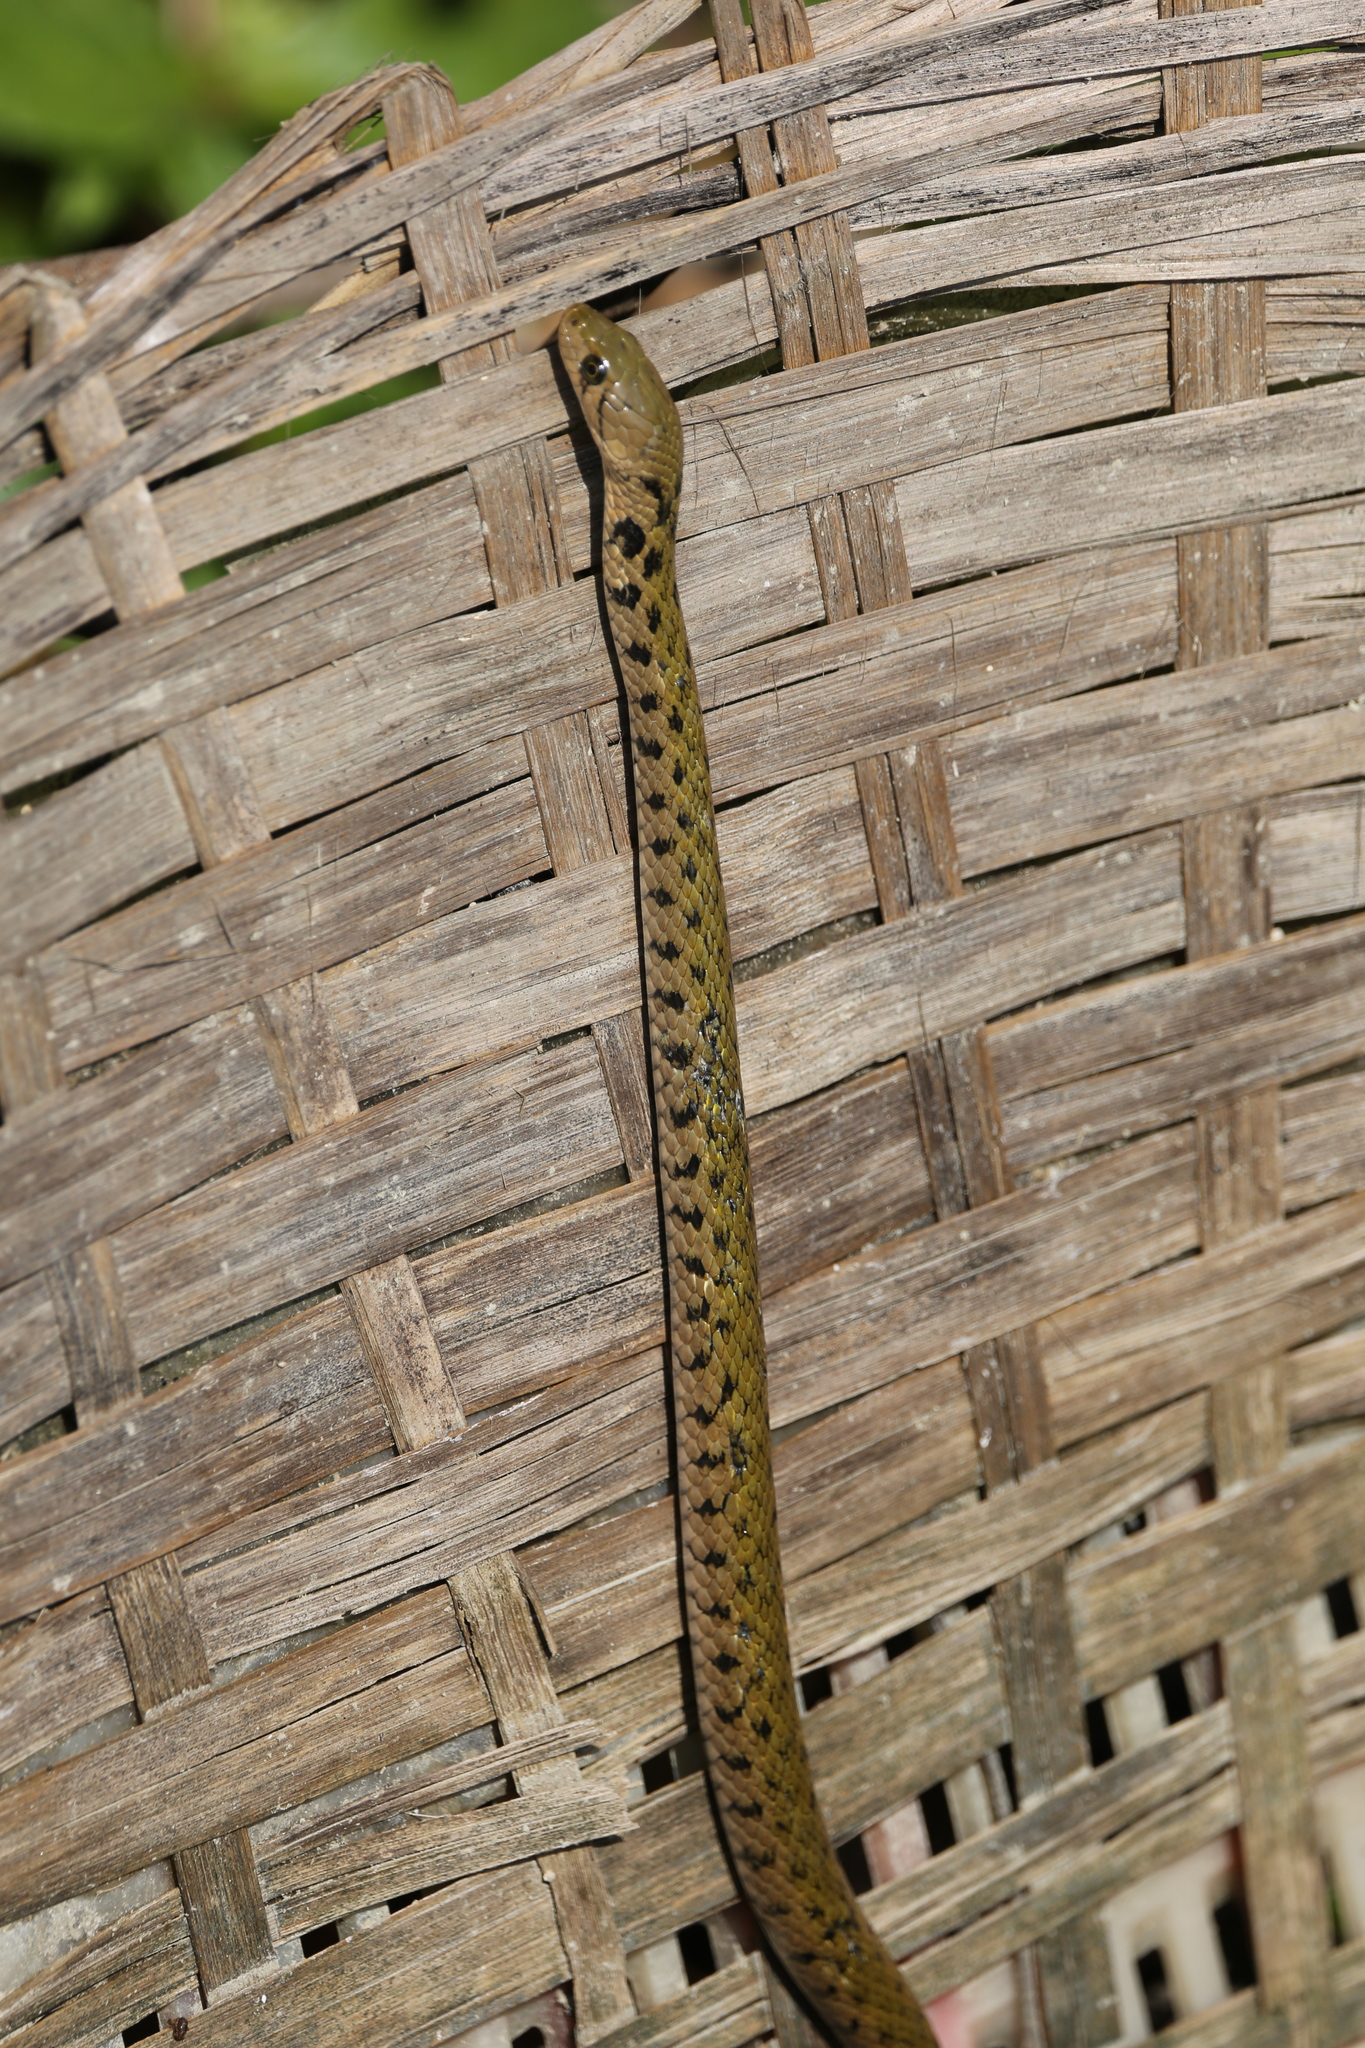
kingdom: Animalia
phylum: Chordata
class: Squamata
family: Colubridae
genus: Fowlea
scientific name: Fowlea flavipunctatus
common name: Yellow-spotted keelback
